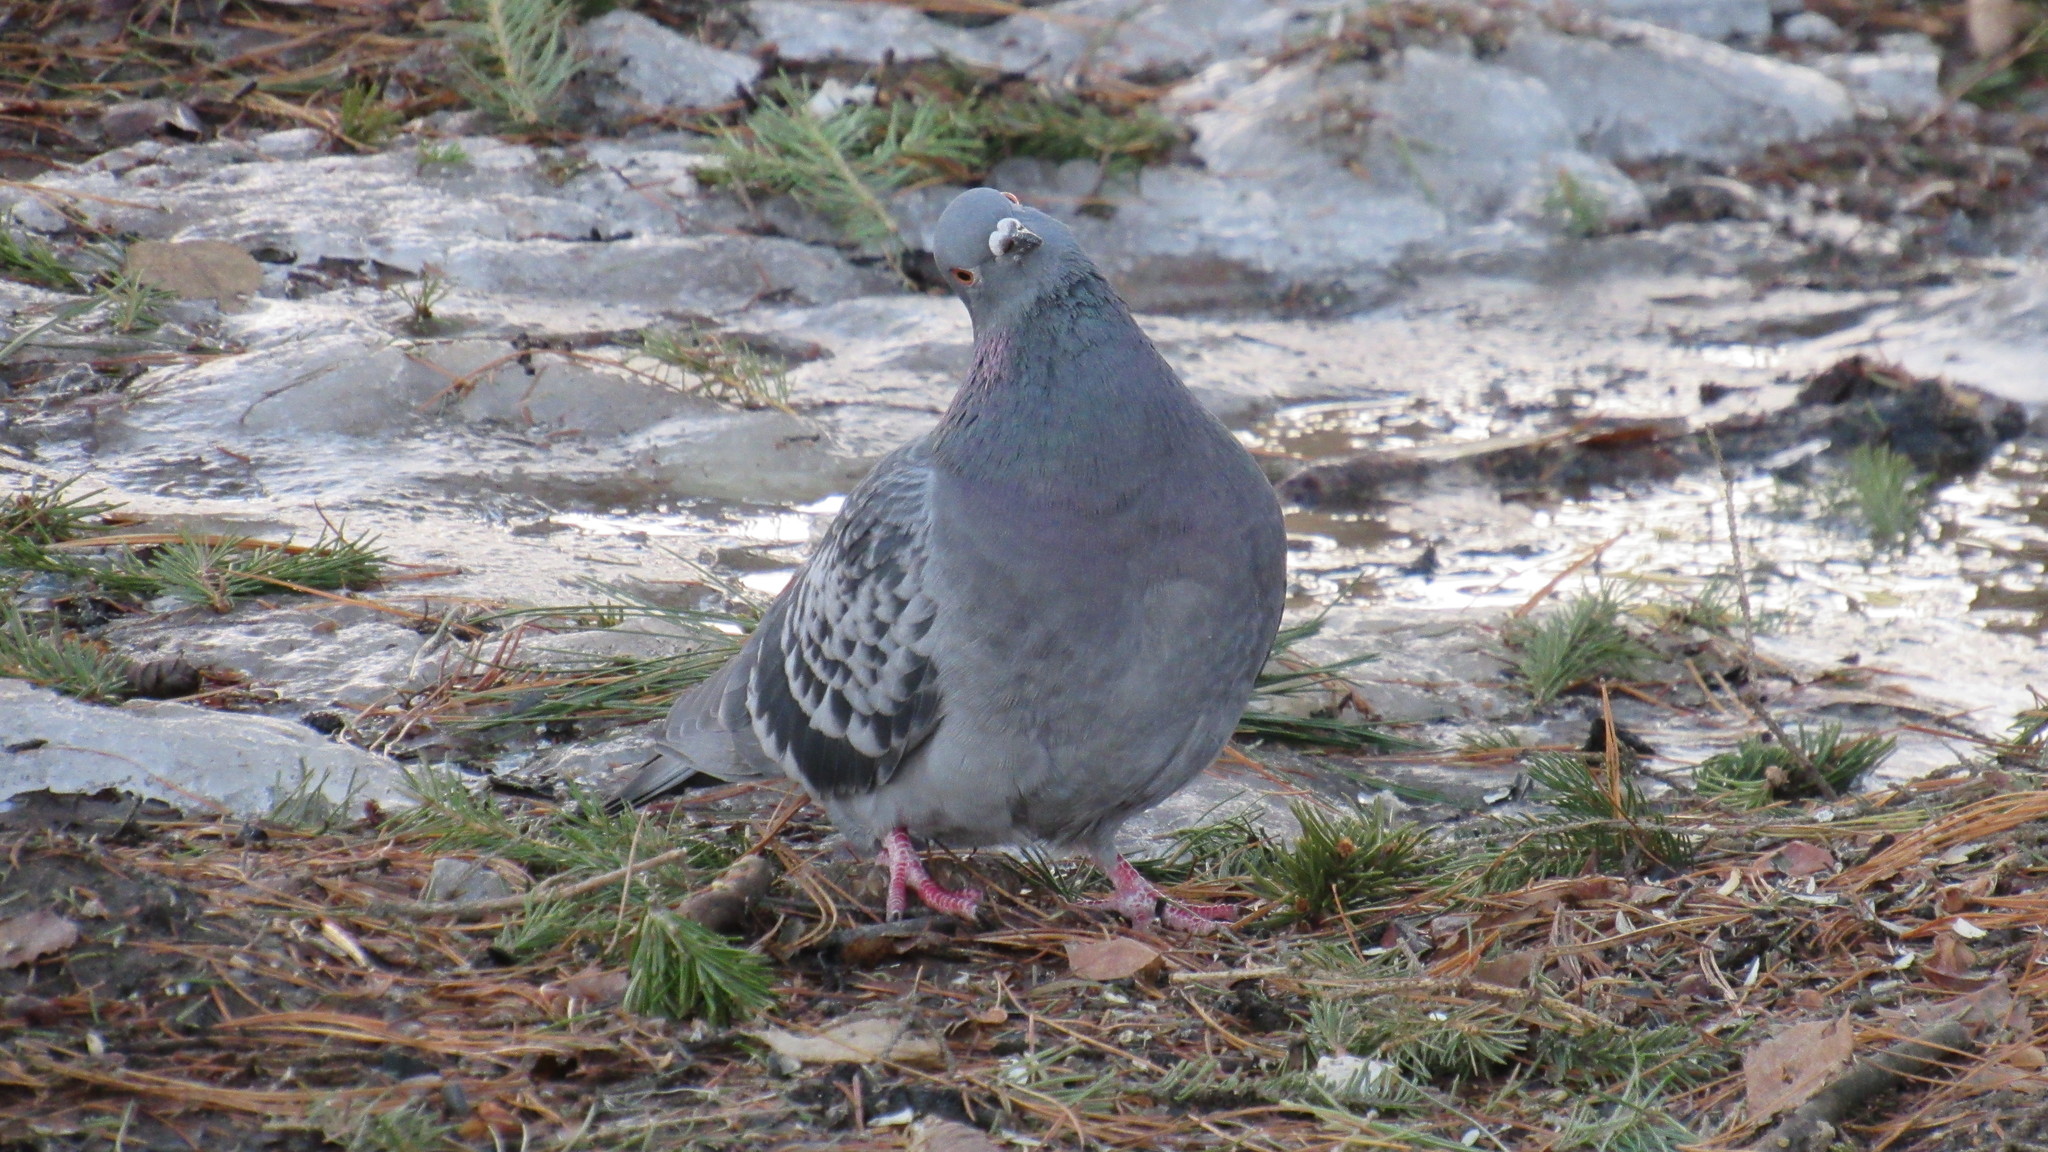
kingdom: Animalia
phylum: Chordata
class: Aves
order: Columbiformes
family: Columbidae
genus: Columba
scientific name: Columba livia
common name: Rock pigeon
